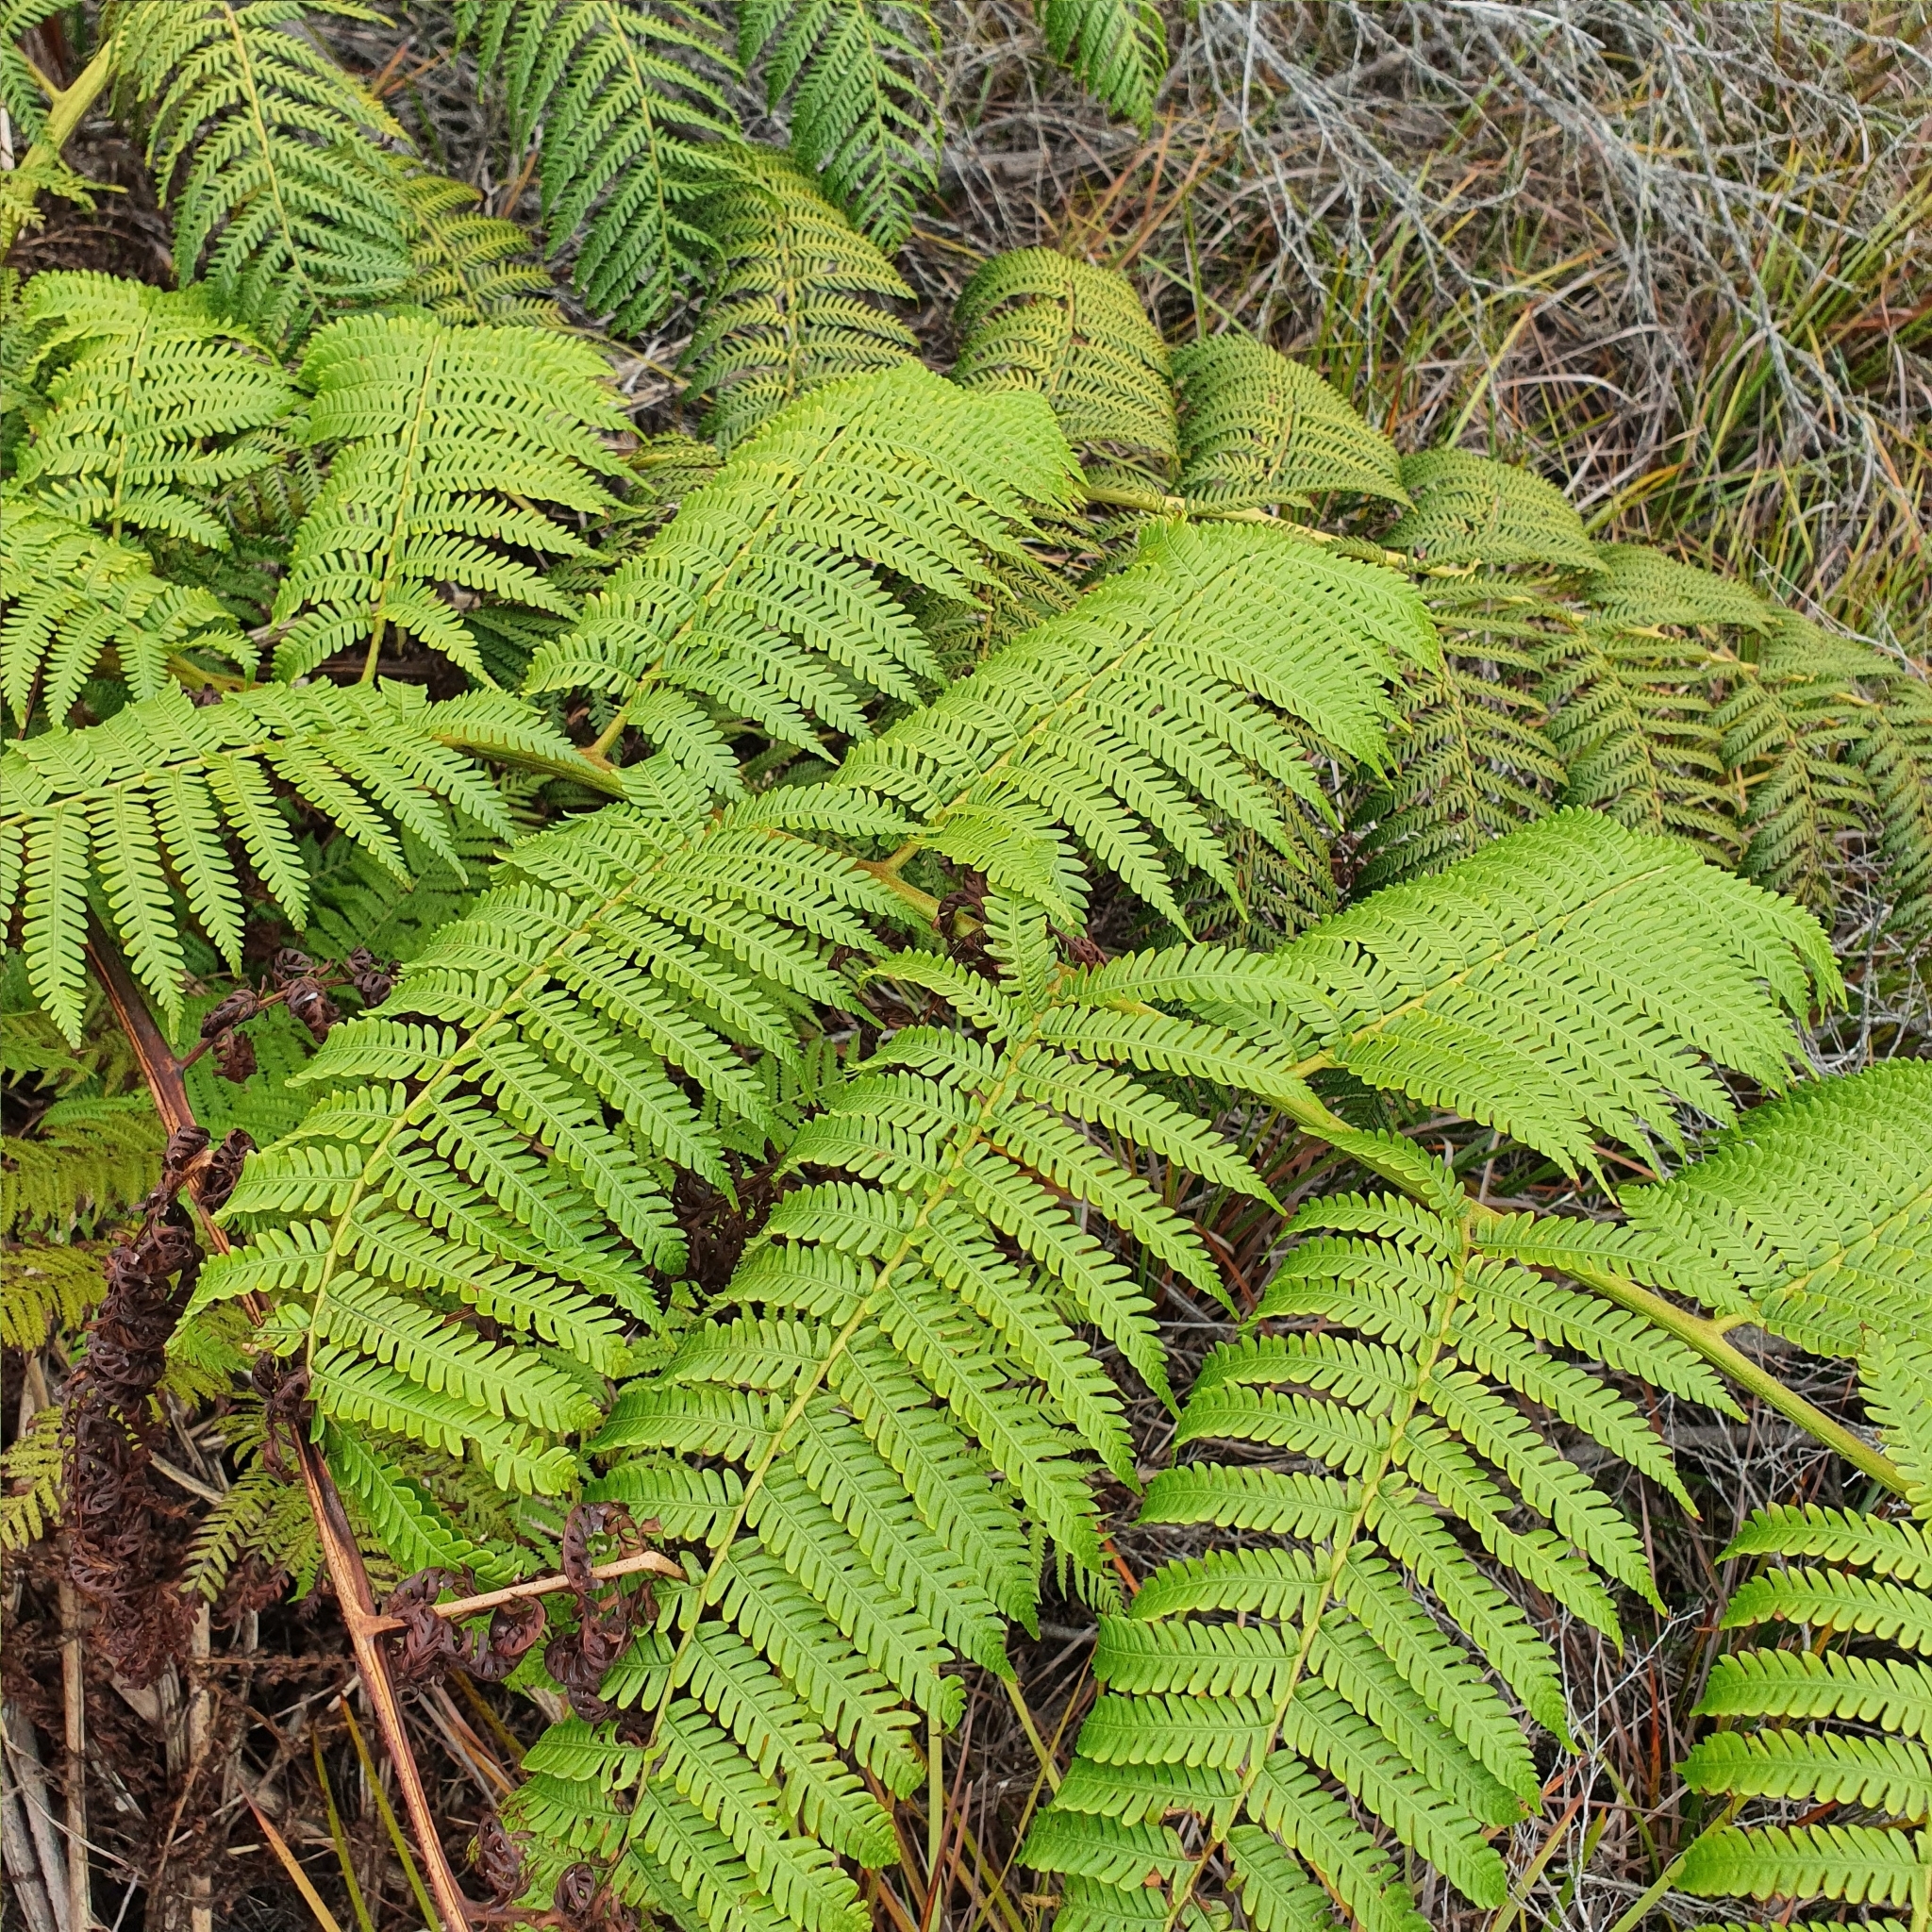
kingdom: Plantae
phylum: Tracheophyta
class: Polypodiopsida
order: Cyatheales
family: Cyatheaceae
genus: Sphaeropteris
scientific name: Sphaeropteris cooperi
